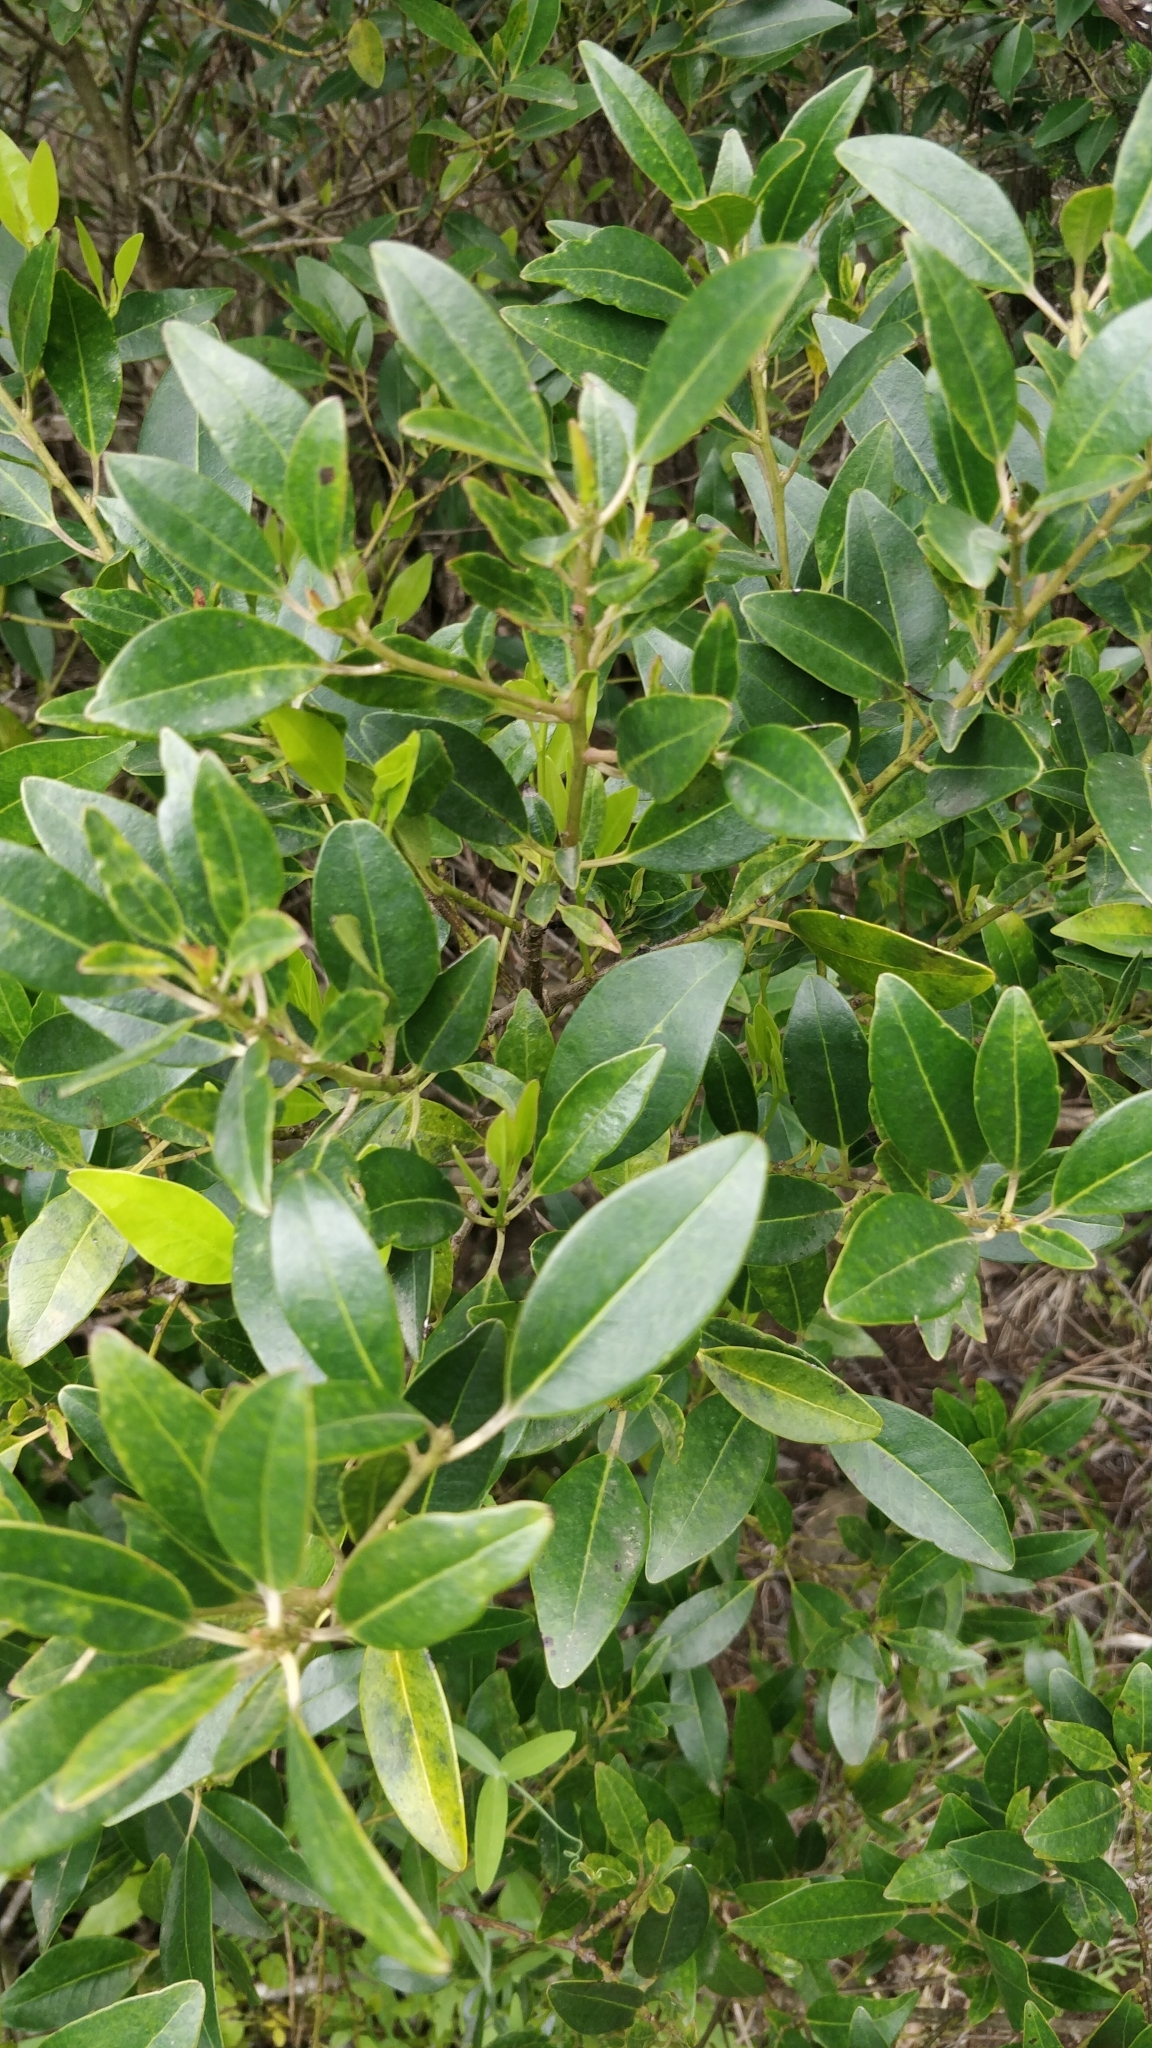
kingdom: Plantae
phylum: Tracheophyta
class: Magnoliopsida
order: Aquifoliales
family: Aquifoliaceae
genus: Ilex
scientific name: Ilex canariensis
